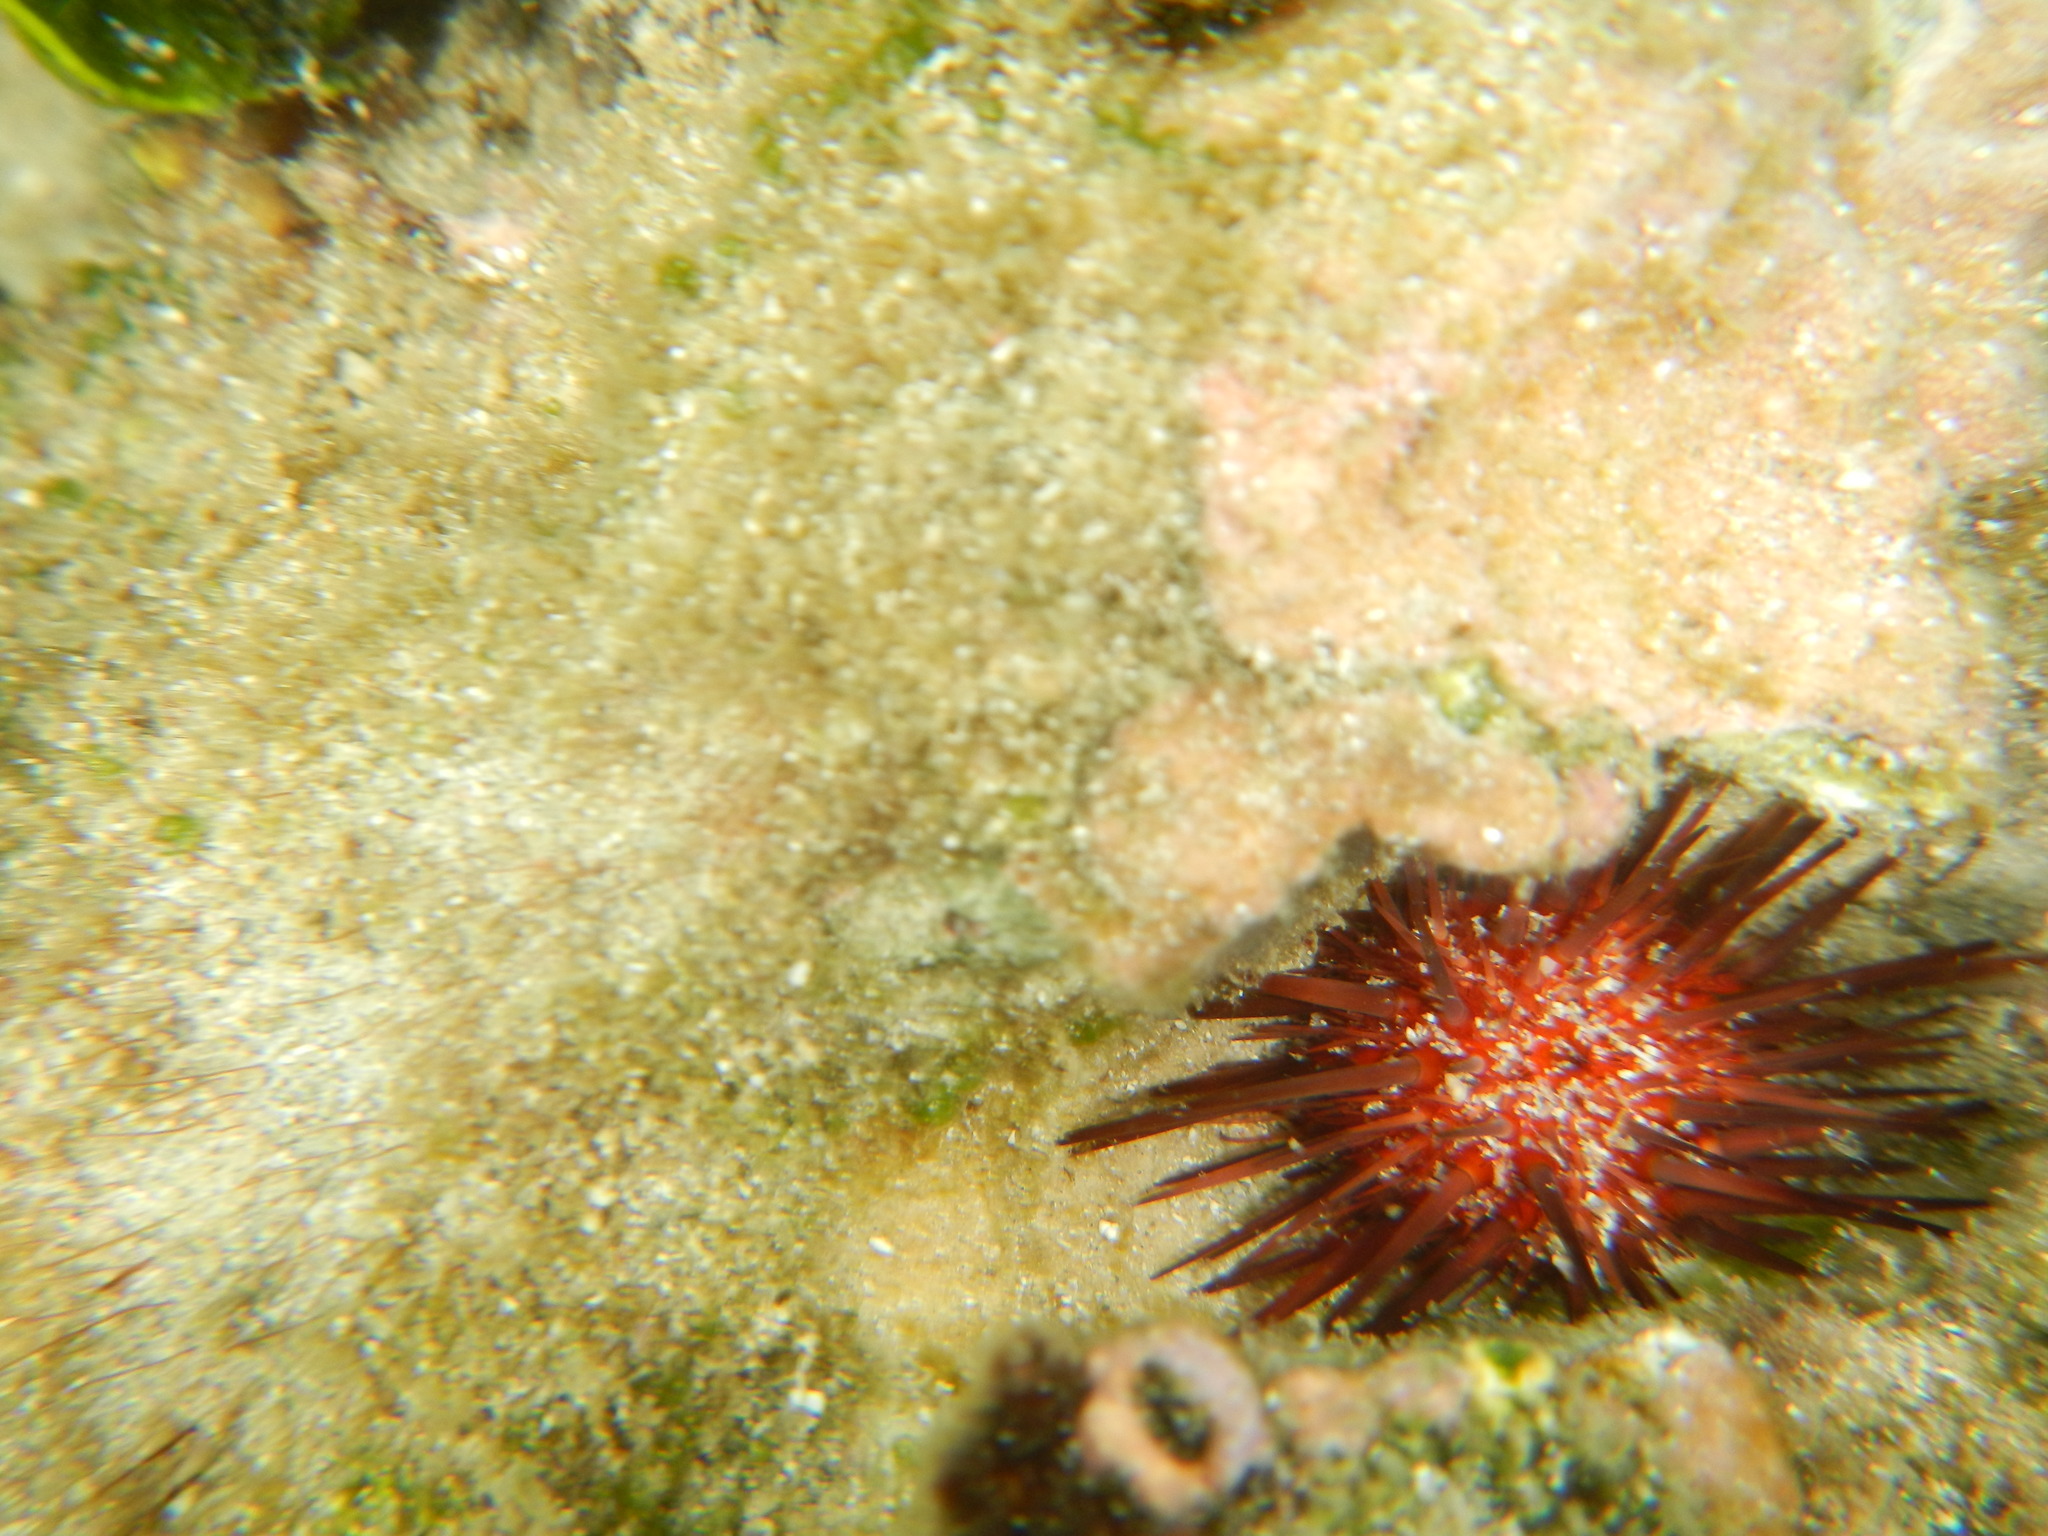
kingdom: Animalia
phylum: Echinodermata
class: Echinoidea
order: Camarodonta
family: Echinometridae
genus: Echinometra
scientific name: Echinometra lucunter
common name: Rock urchin
